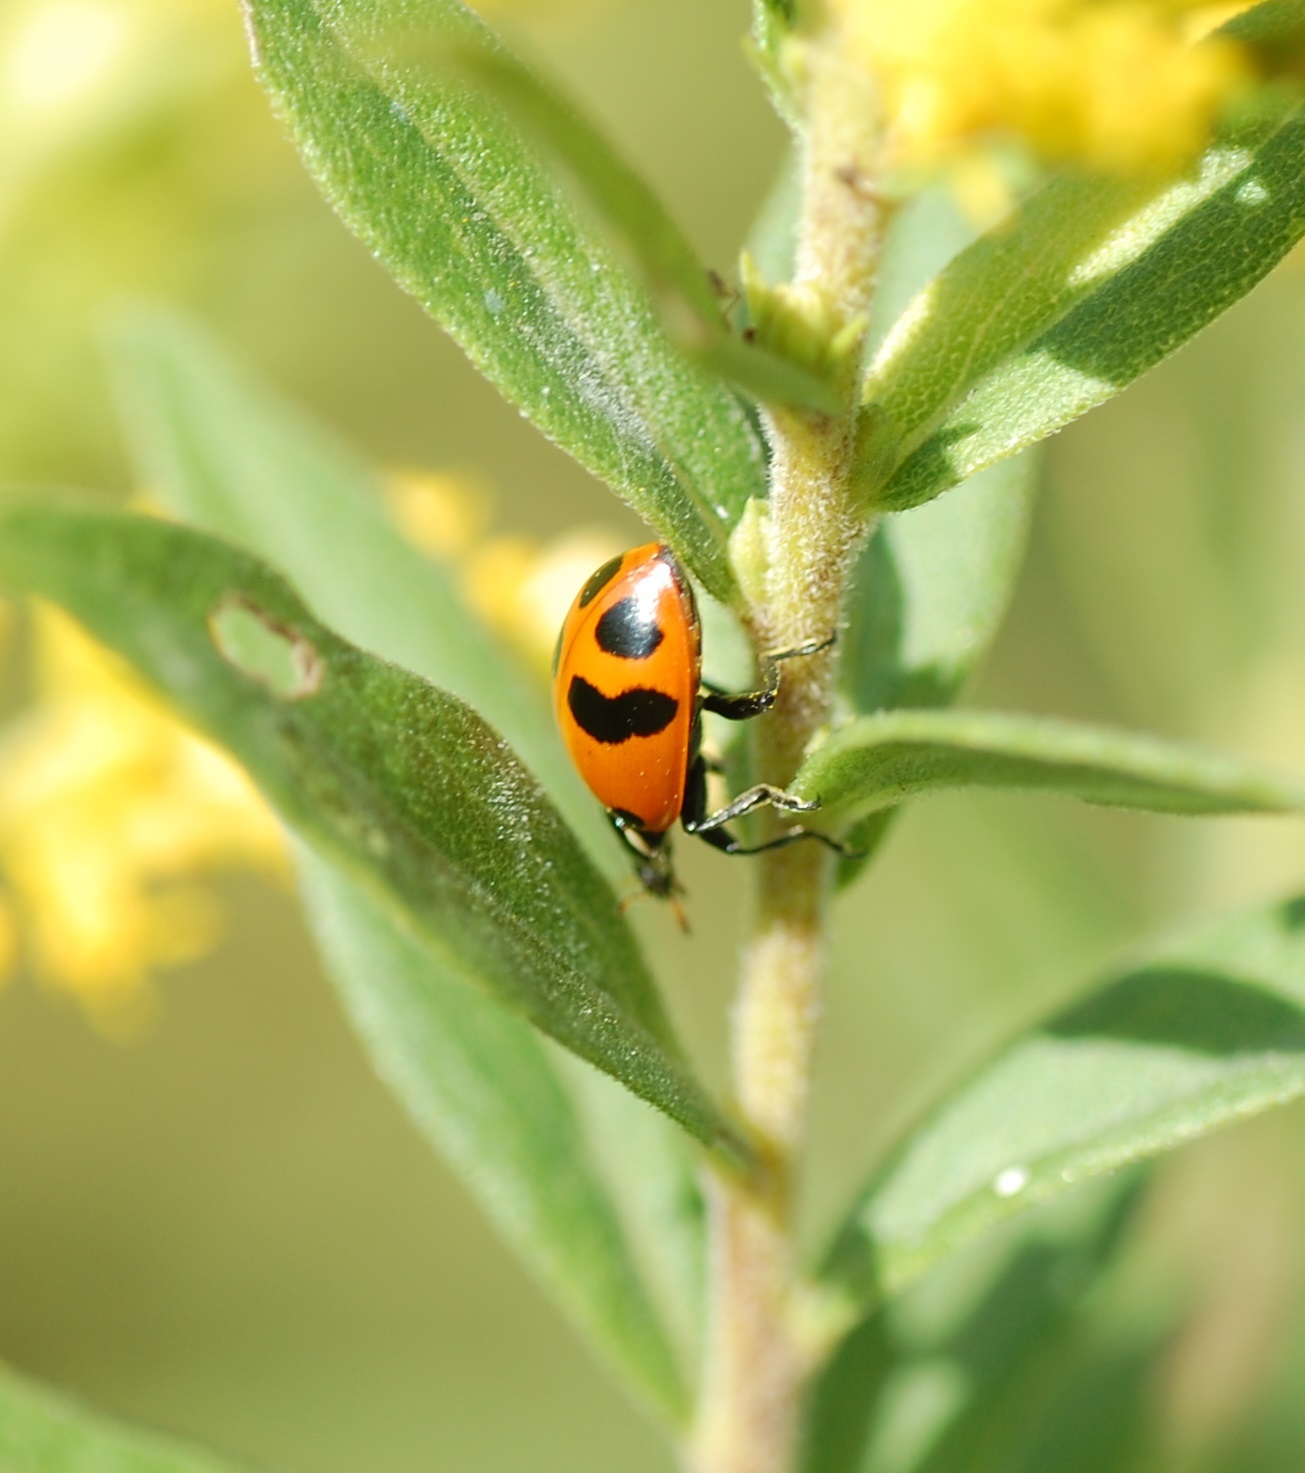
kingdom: Animalia
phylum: Arthropoda
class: Insecta
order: Coleoptera
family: Coccinellidae
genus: Hippodamia
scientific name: Hippodamia glacialis
